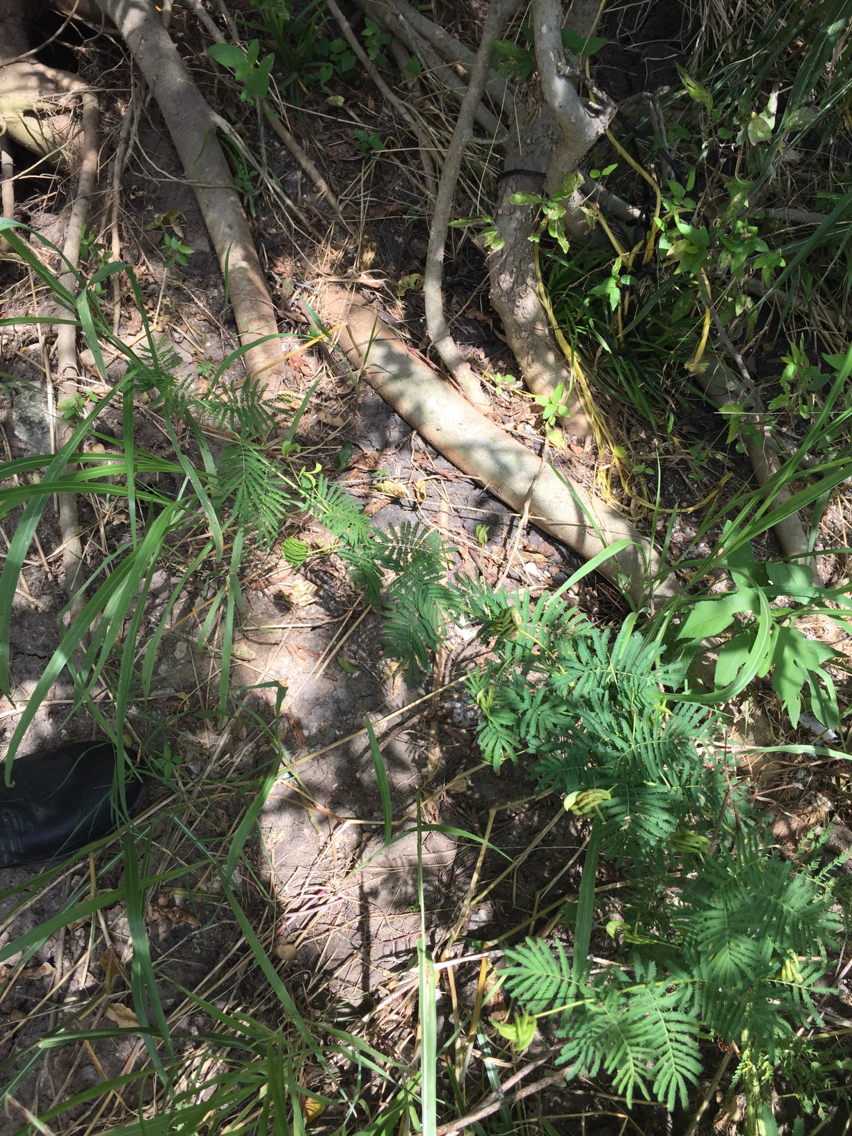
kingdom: Plantae
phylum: Tracheophyta
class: Magnoliopsida
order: Fabales
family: Fabaceae
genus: Desmanthus
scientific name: Desmanthus illinoensis
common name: Illinois bundle-flower
